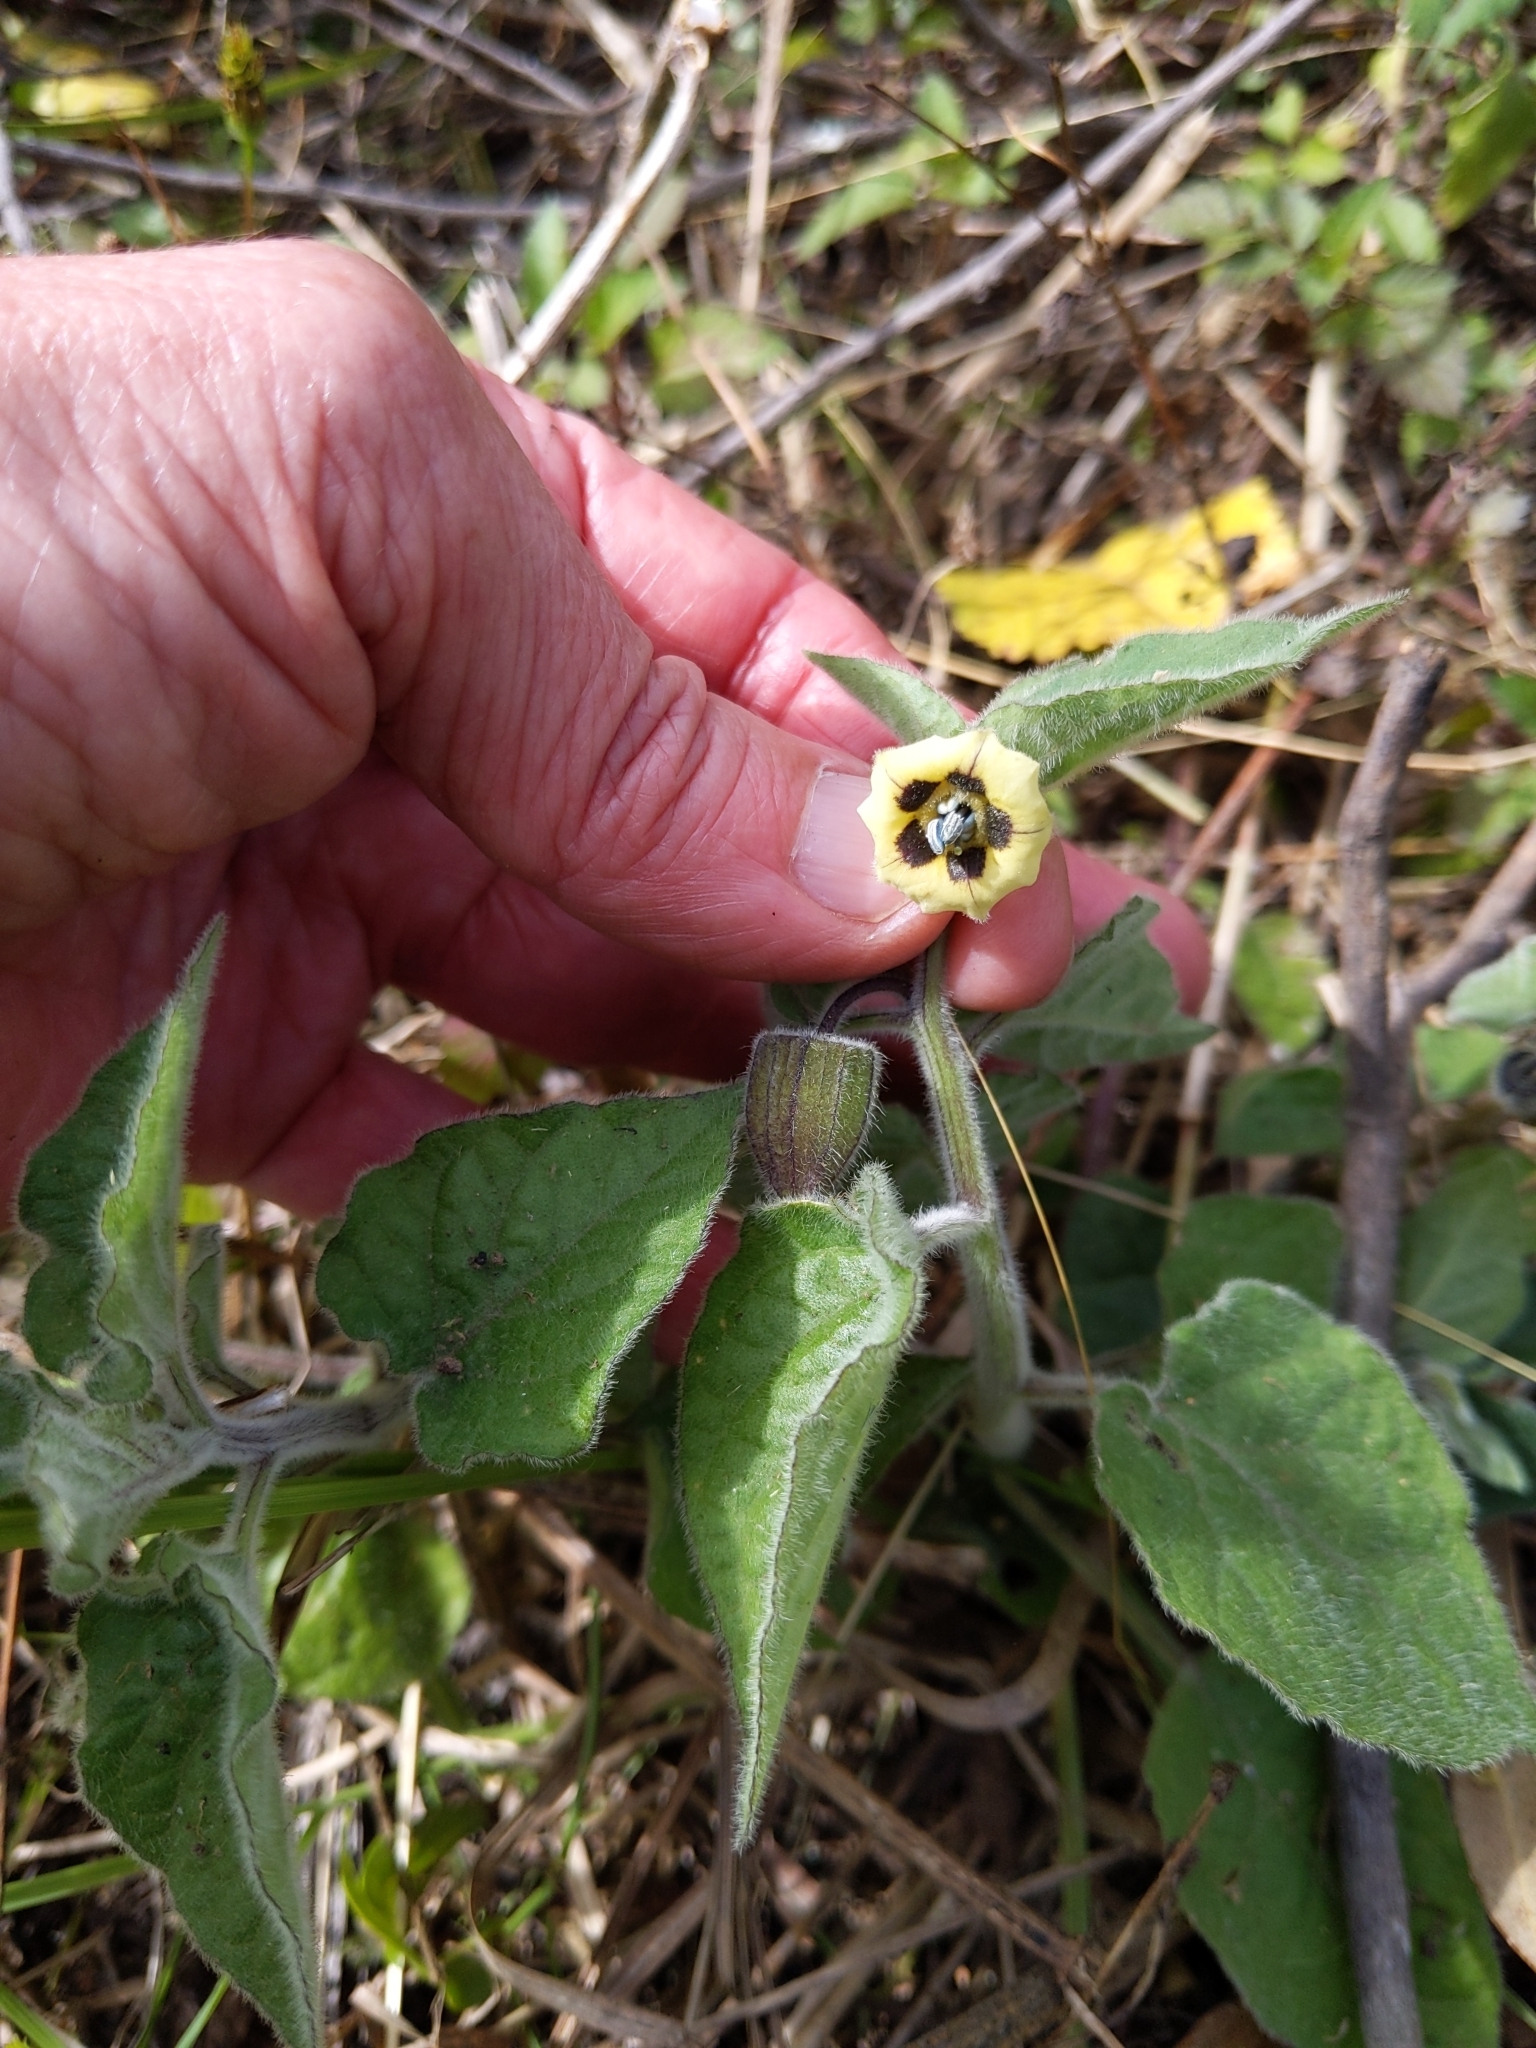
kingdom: Plantae
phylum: Tracheophyta
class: Magnoliopsida
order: Solanales
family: Solanaceae
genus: Physalis
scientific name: Physalis peruviana
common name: Cape-gooseberry
